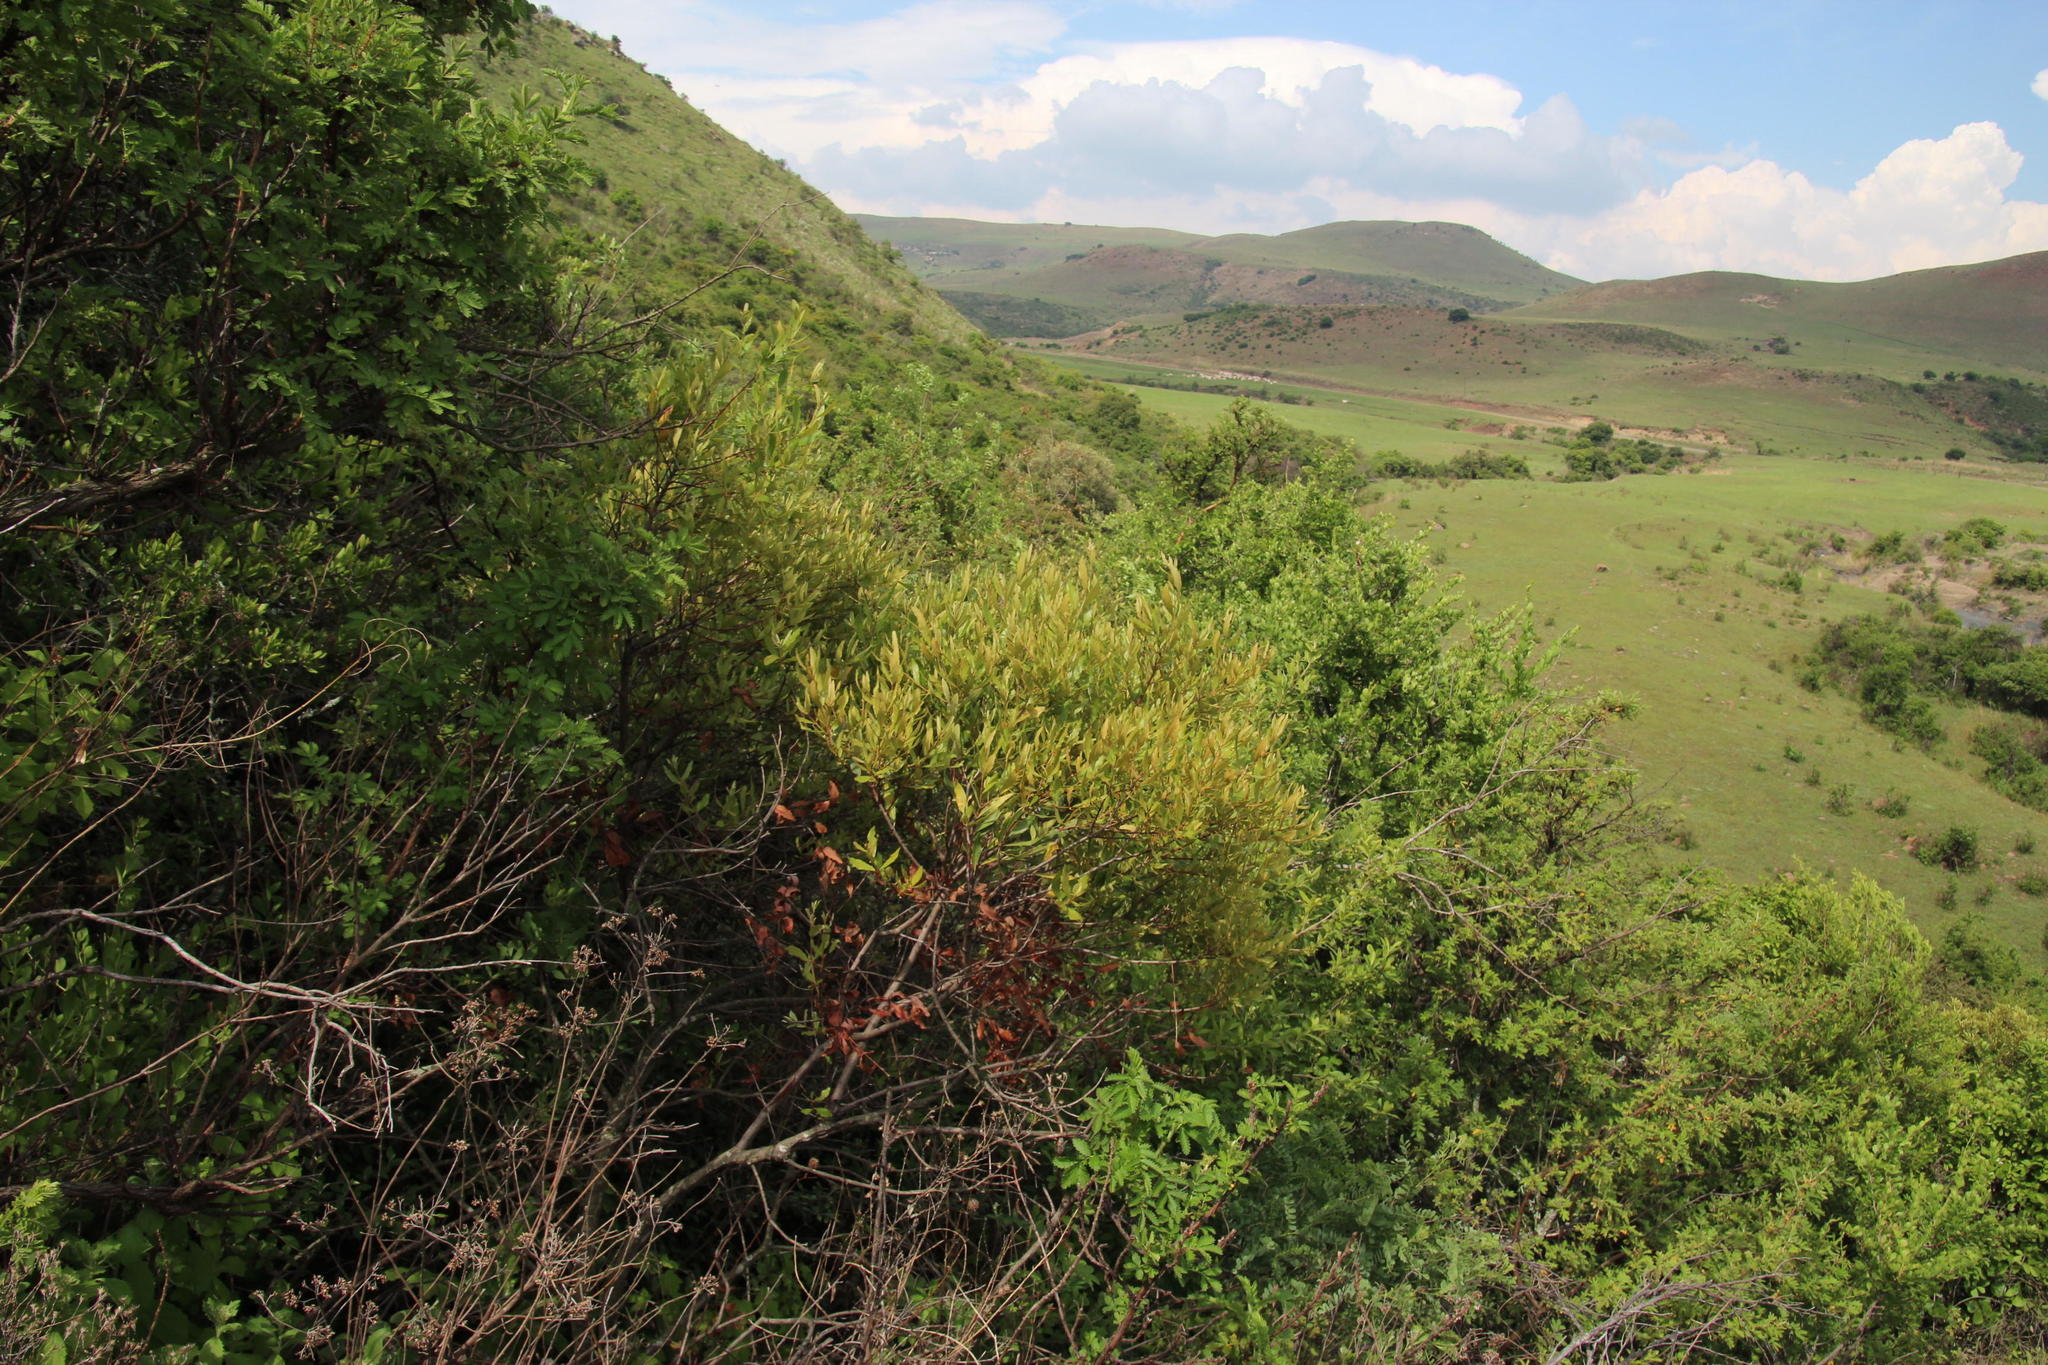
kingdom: Plantae
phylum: Tracheophyta
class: Magnoliopsida
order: Ericales
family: Ebenaceae
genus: Euclea
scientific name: Euclea crispa
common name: Blue guarri
